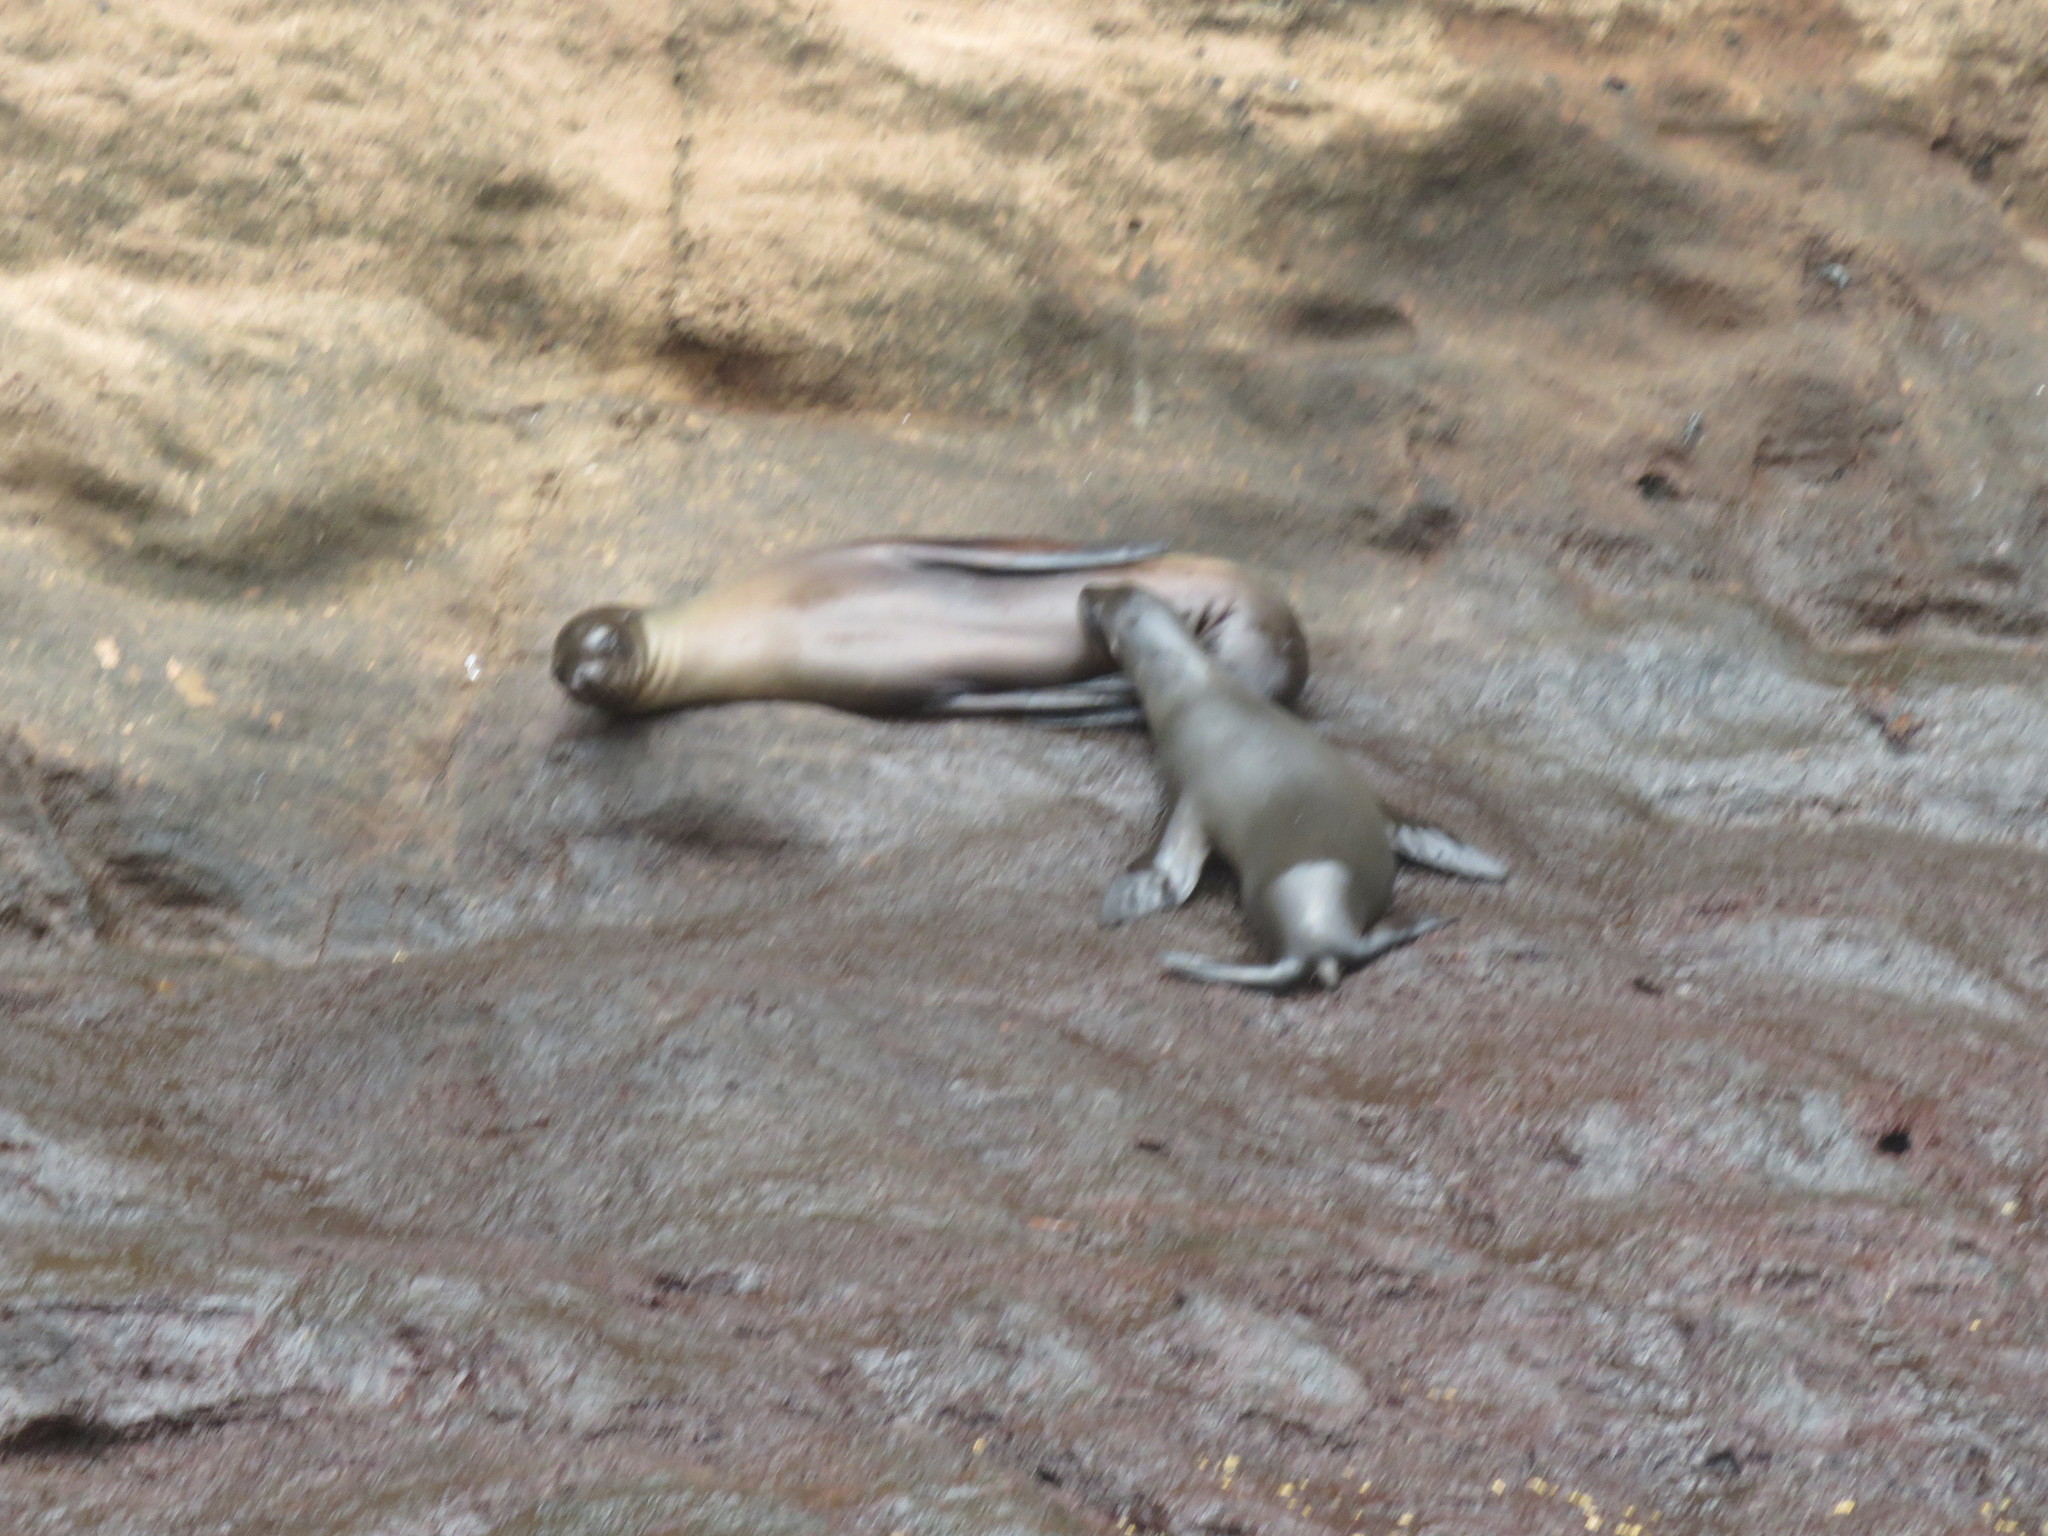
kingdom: Animalia
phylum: Chordata
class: Mammalia
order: Carnivora
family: Otariidae
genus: Zalophus
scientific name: Zalophus wollebaeki
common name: Galapagos sea lion
